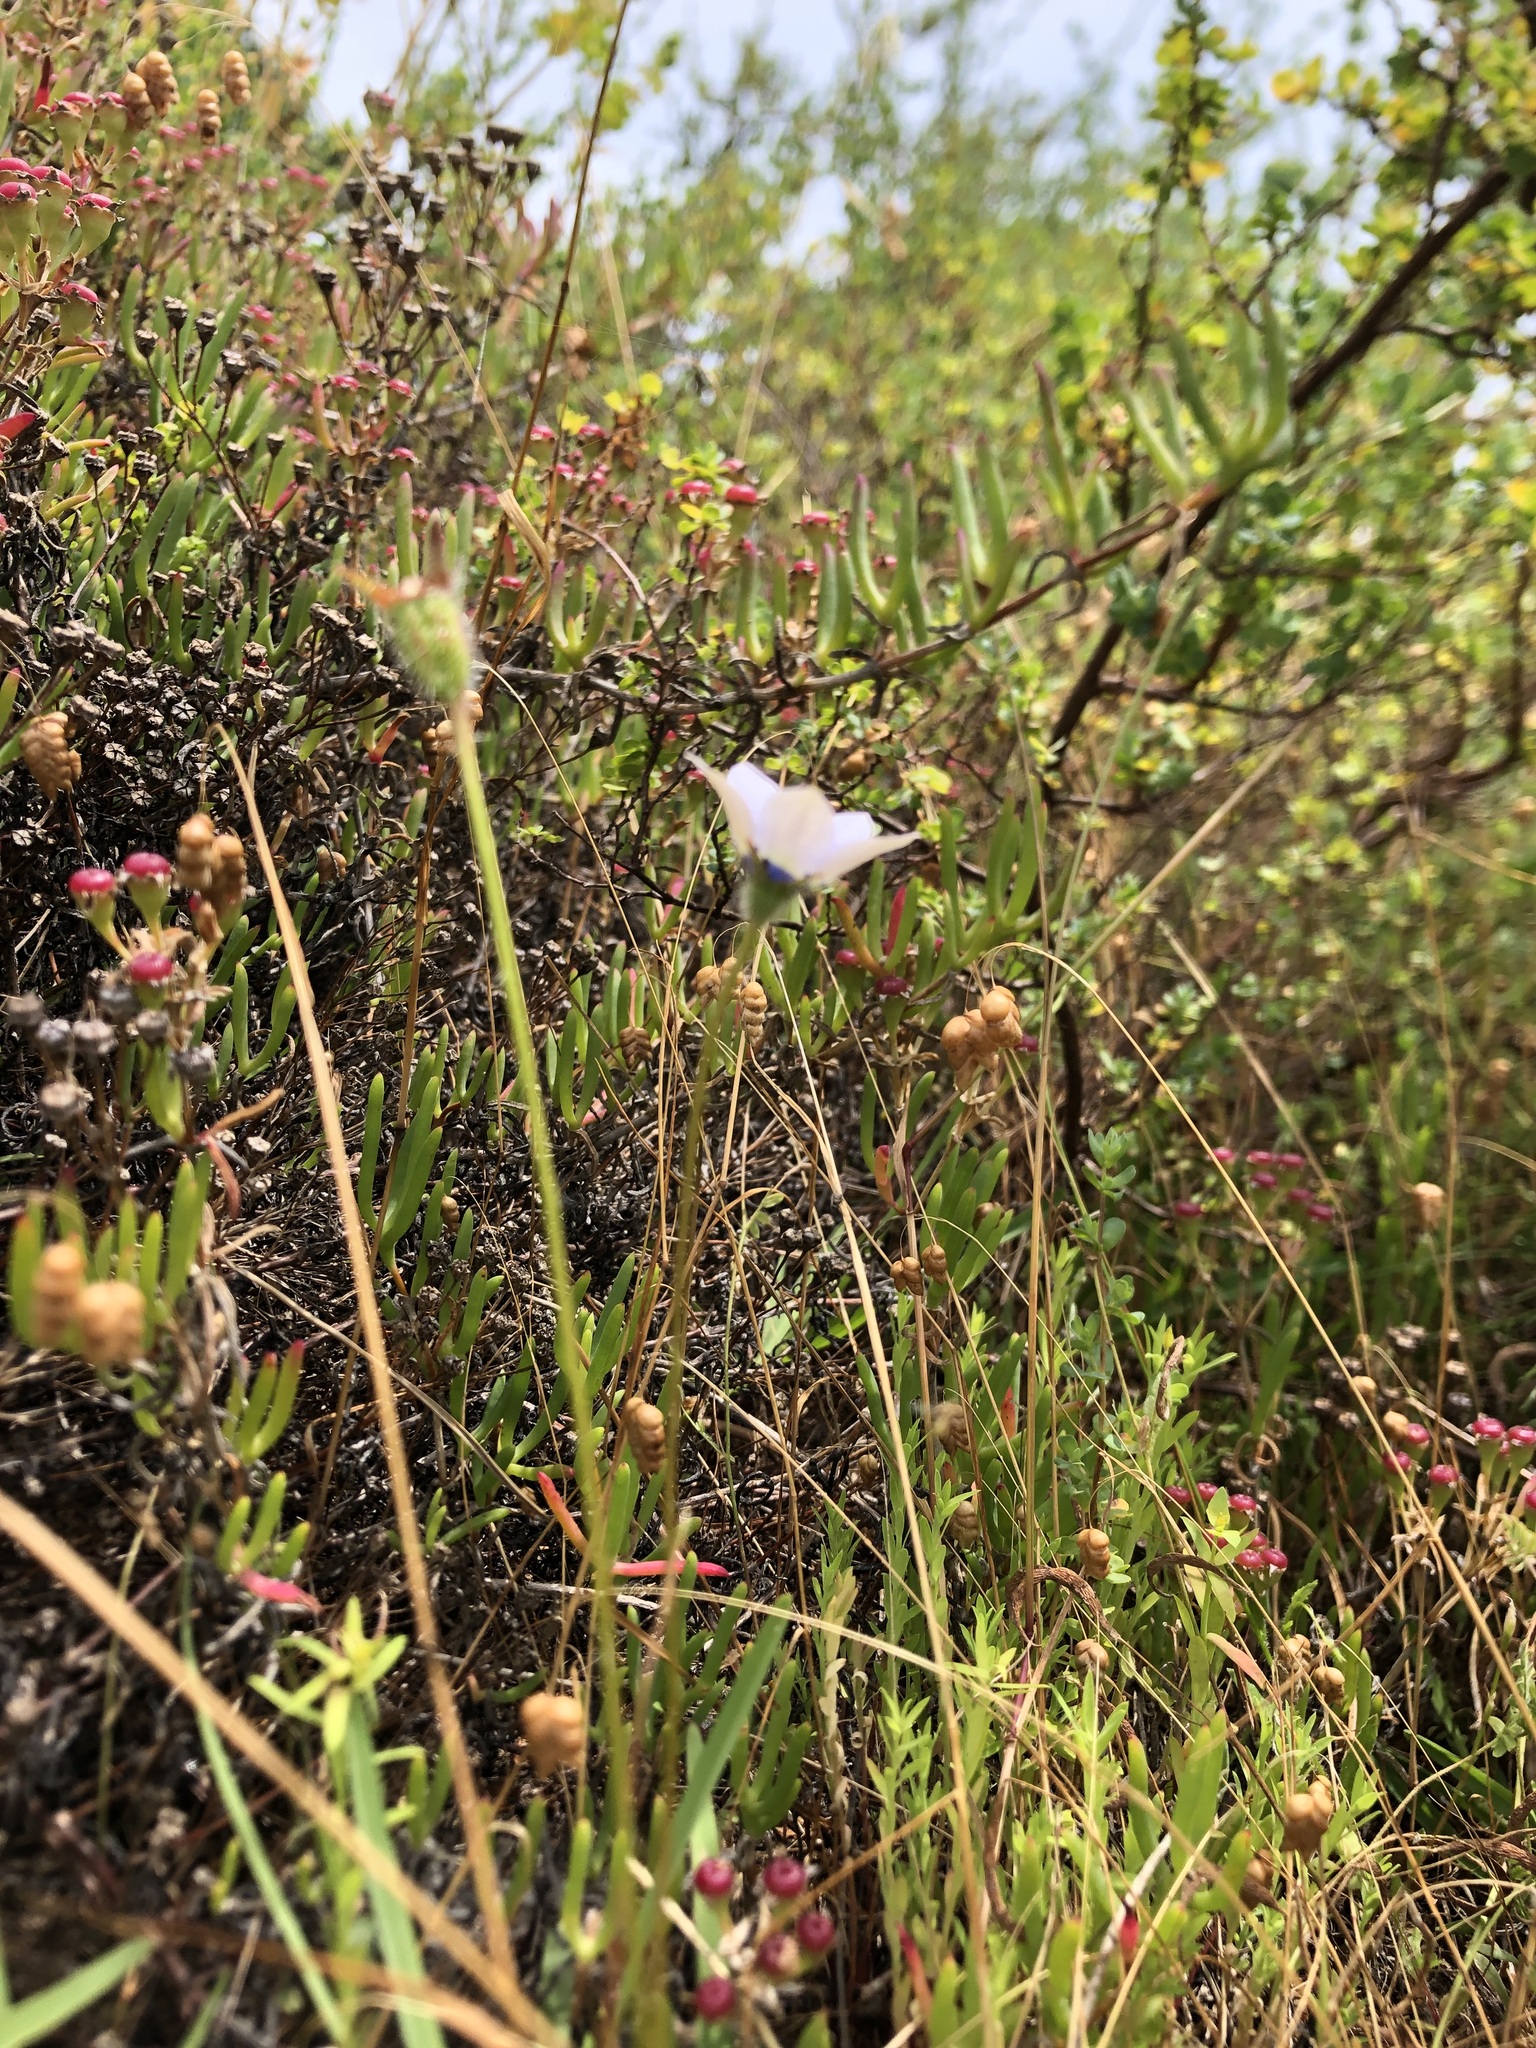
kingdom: Plantae
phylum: Tracheophyta
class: Magnoliopsida
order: Asterales
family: Campanulaceae
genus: Wahlenbergia
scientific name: Wahlenbergia capensis
